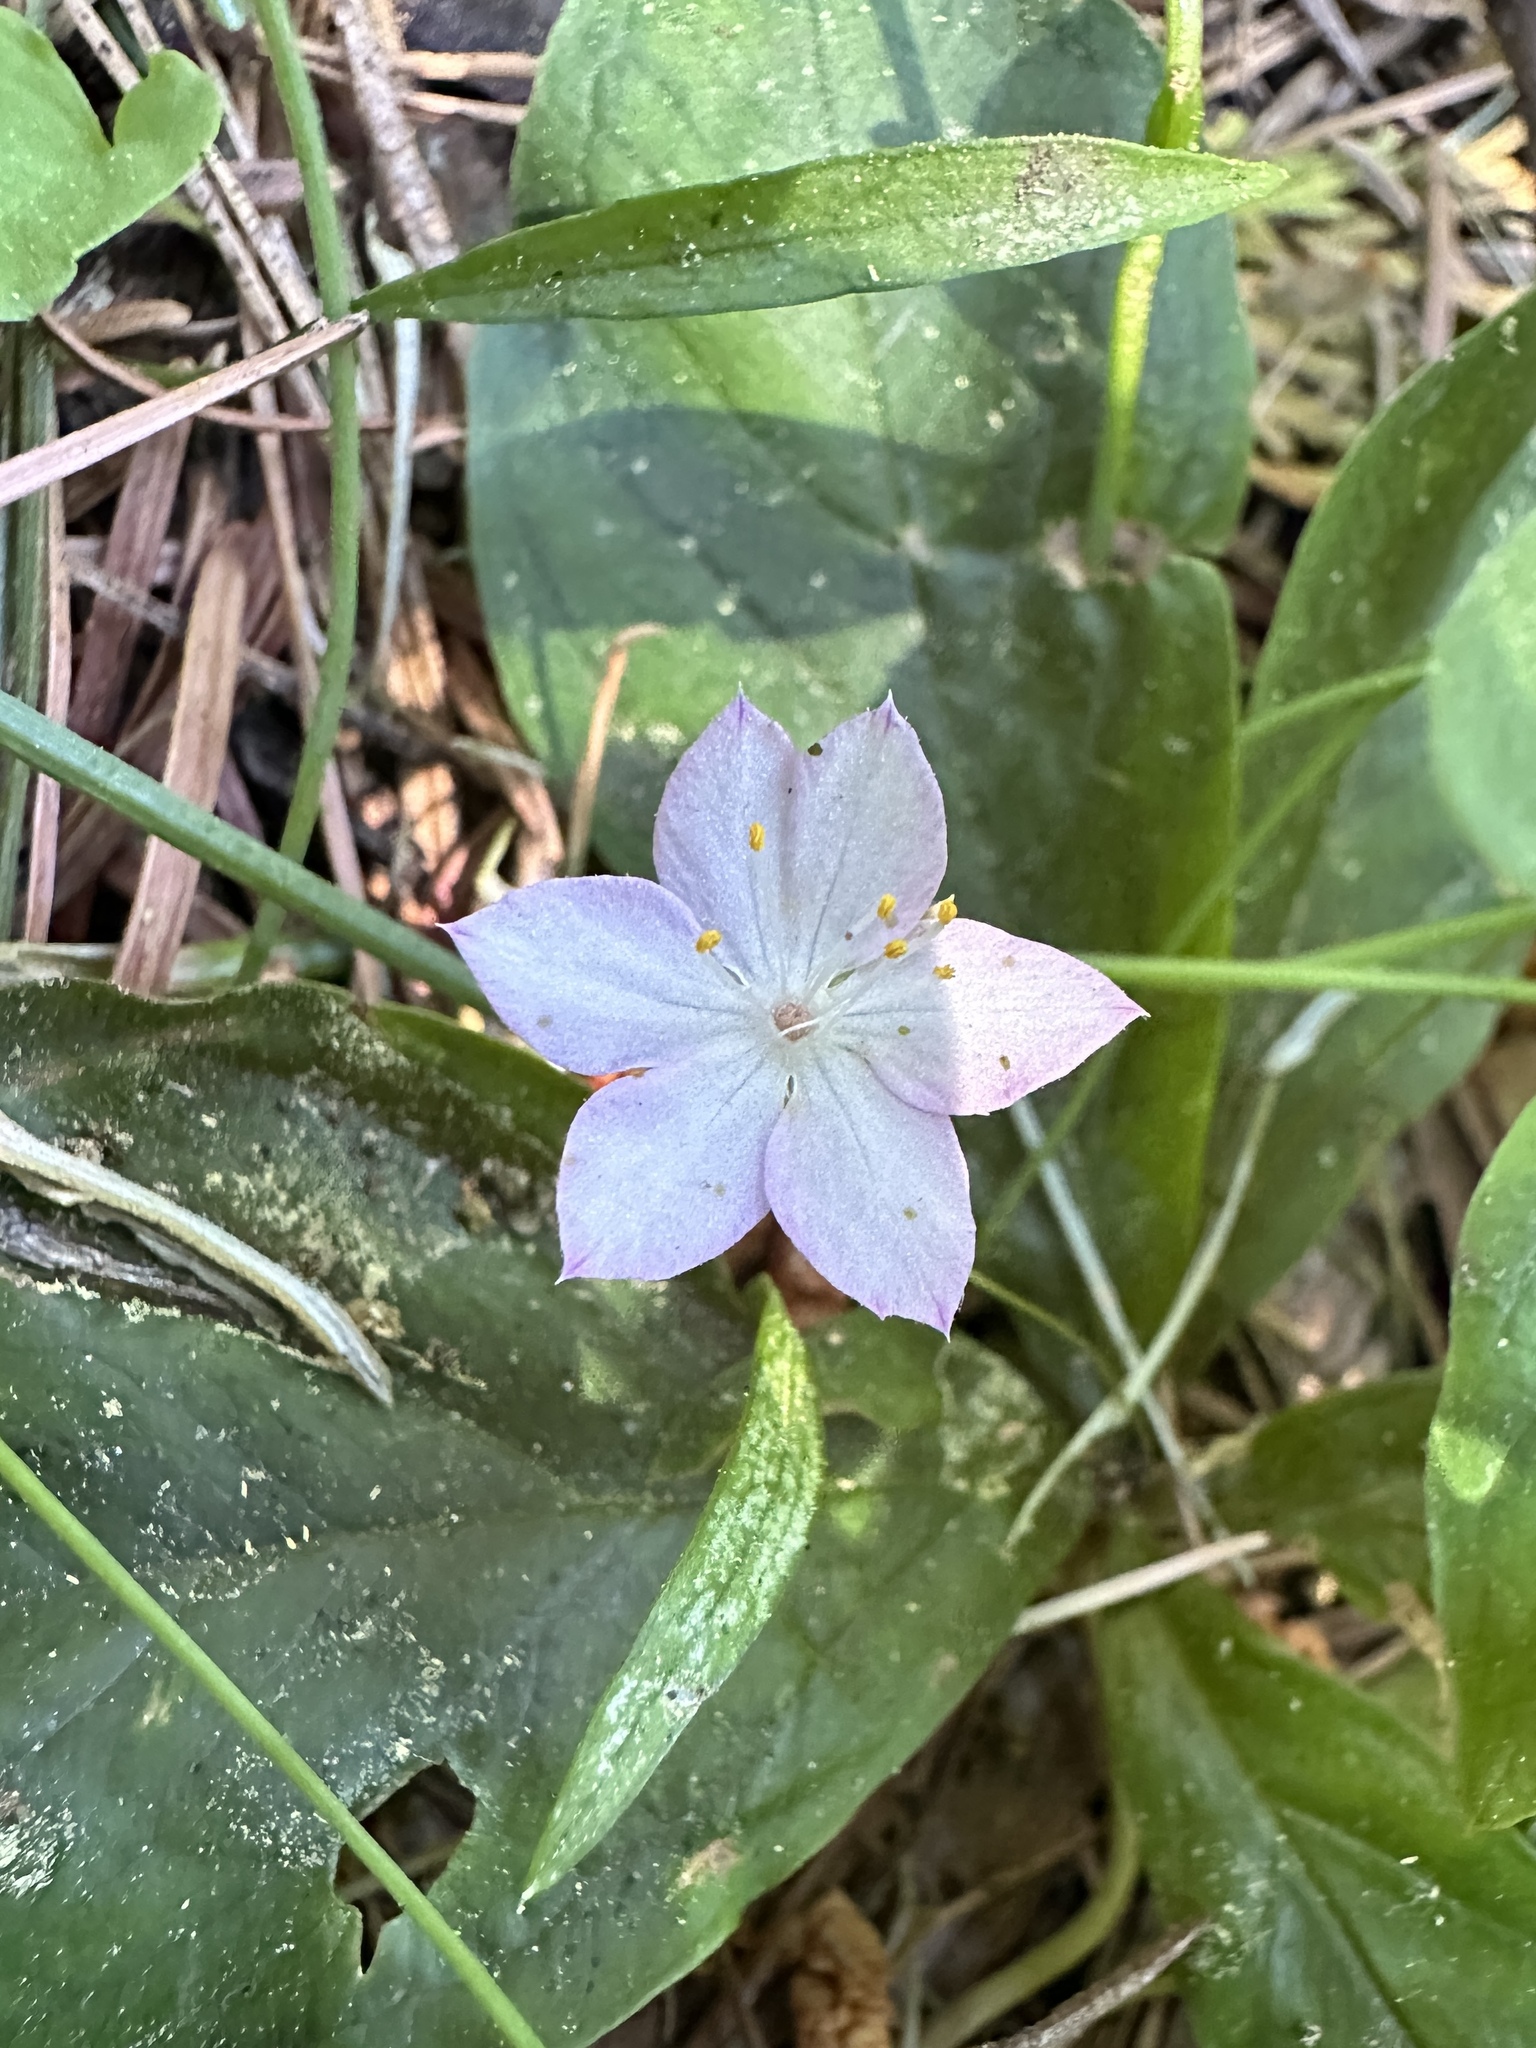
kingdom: Plantae
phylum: Tracheophyta
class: Magnoliopsida
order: Ericales
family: Primulaceae
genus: Lysimachia
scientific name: Lysimachia latifolia
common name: Pacific starflower
